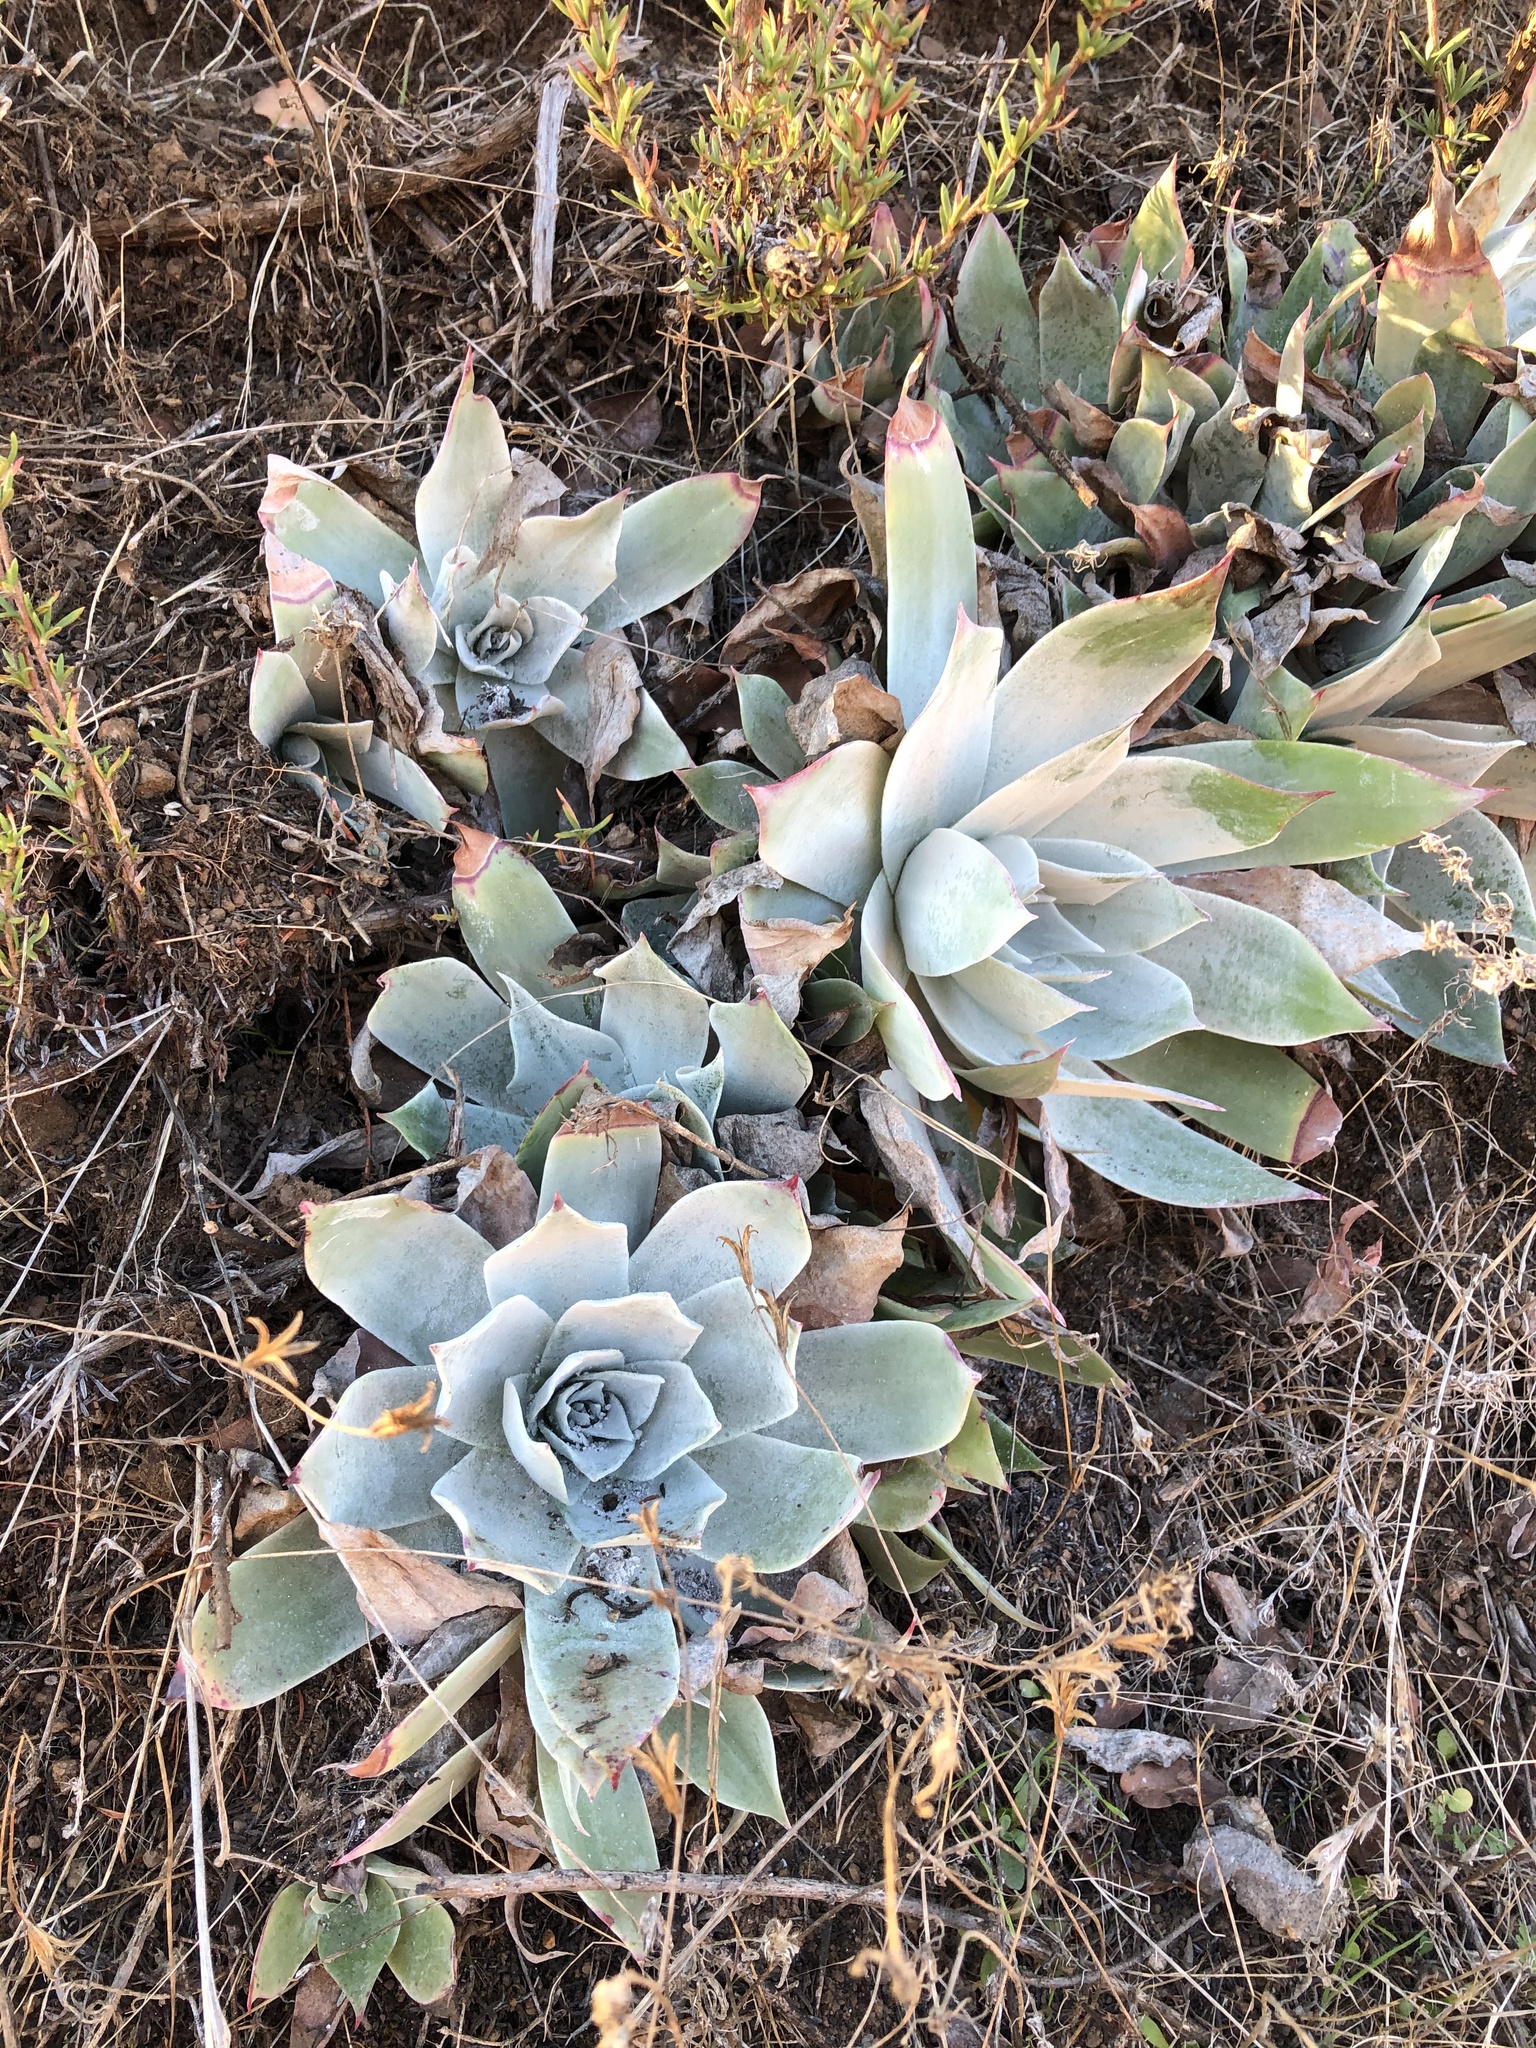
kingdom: Plantae
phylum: Tracheophyta
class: Magnoliopsida
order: Saxifragales
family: Crassulaceae
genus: Dudleya
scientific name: Dudleya pulverulenta
